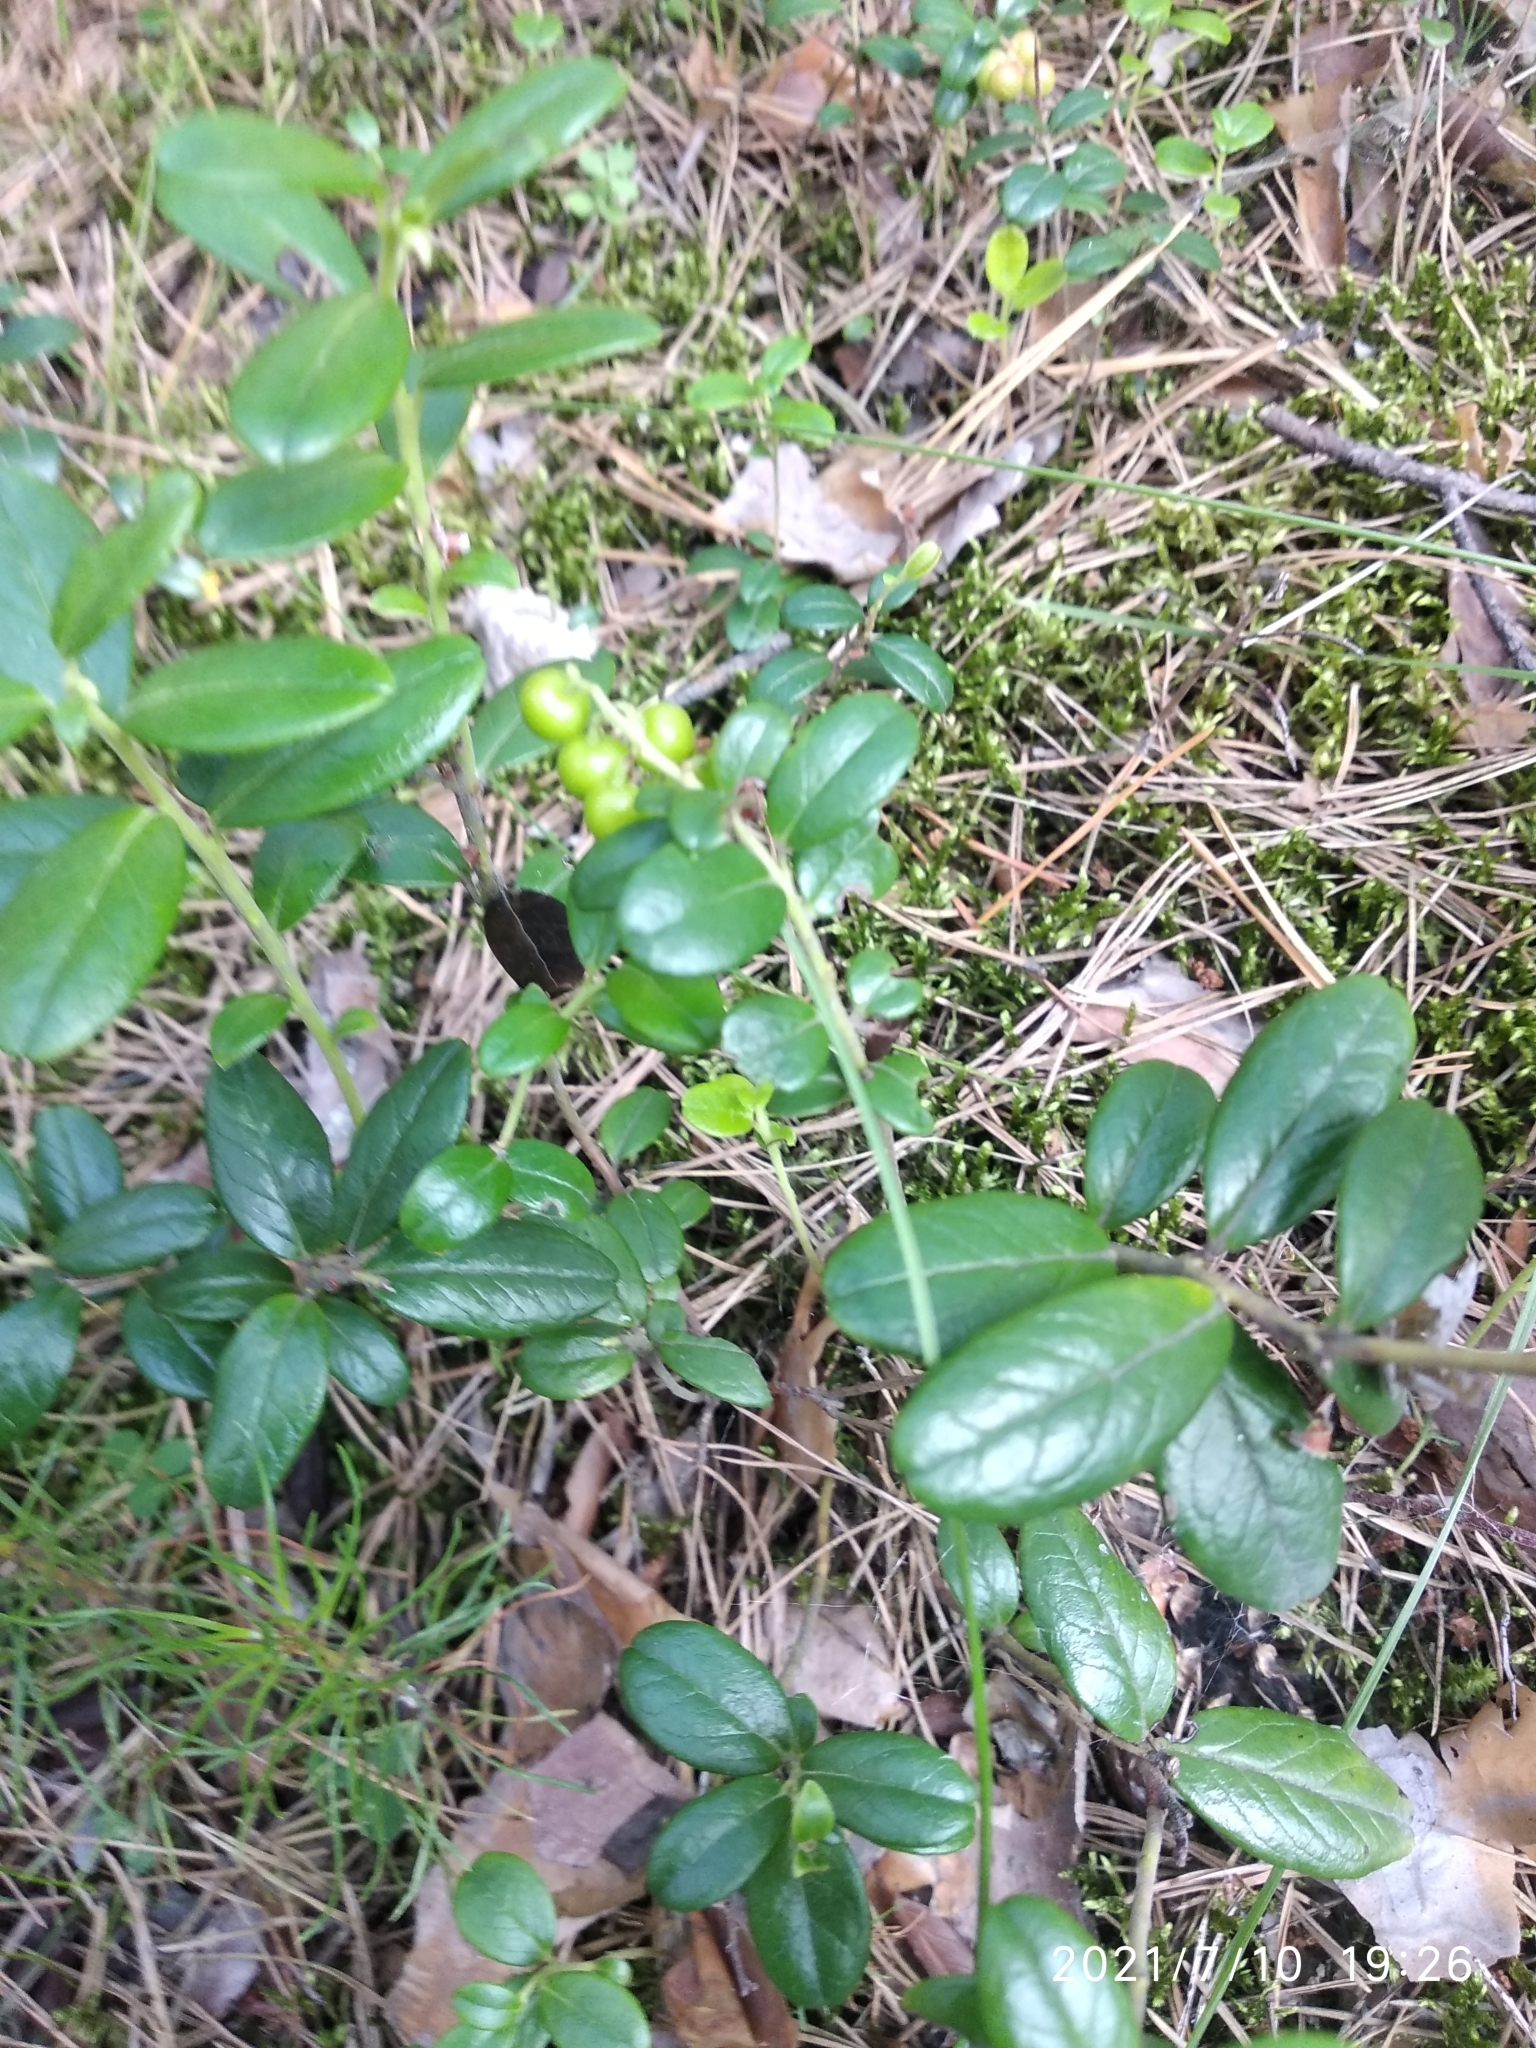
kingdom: Plantae
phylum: Tracheophyta
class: Magnoliopsida
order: Ericales
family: Ericaceae
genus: Vaccinium
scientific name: Vaccinium vitis-idaea
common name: Cowberry
